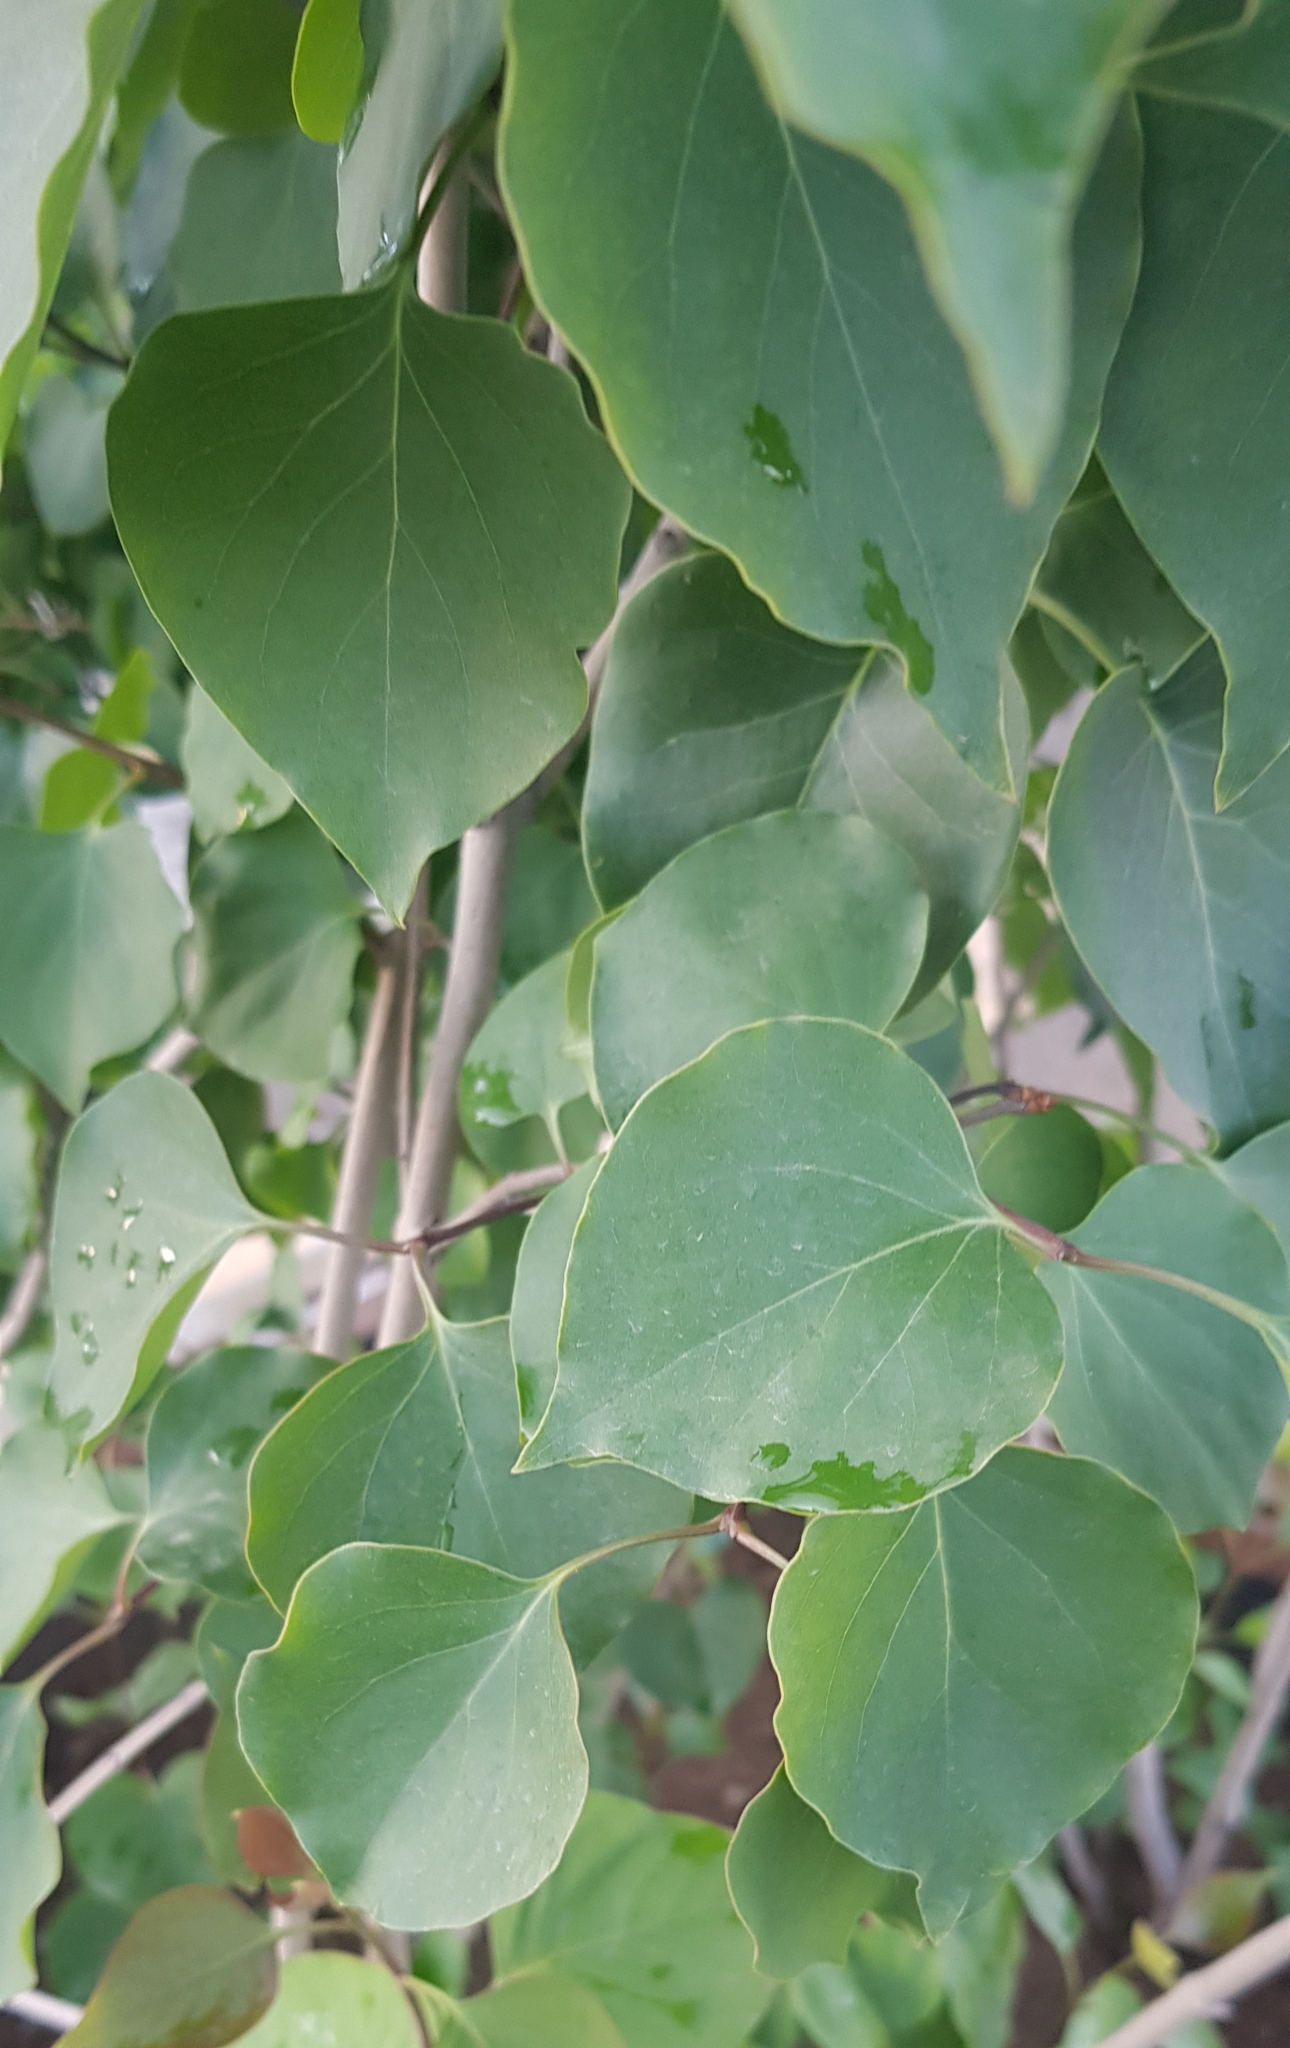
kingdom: Plantae
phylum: Tracheophyta
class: Magnoliopsida
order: Lamiales
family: Oleaceae
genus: Syringa
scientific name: Syringa vulgaris
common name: Common lilac
